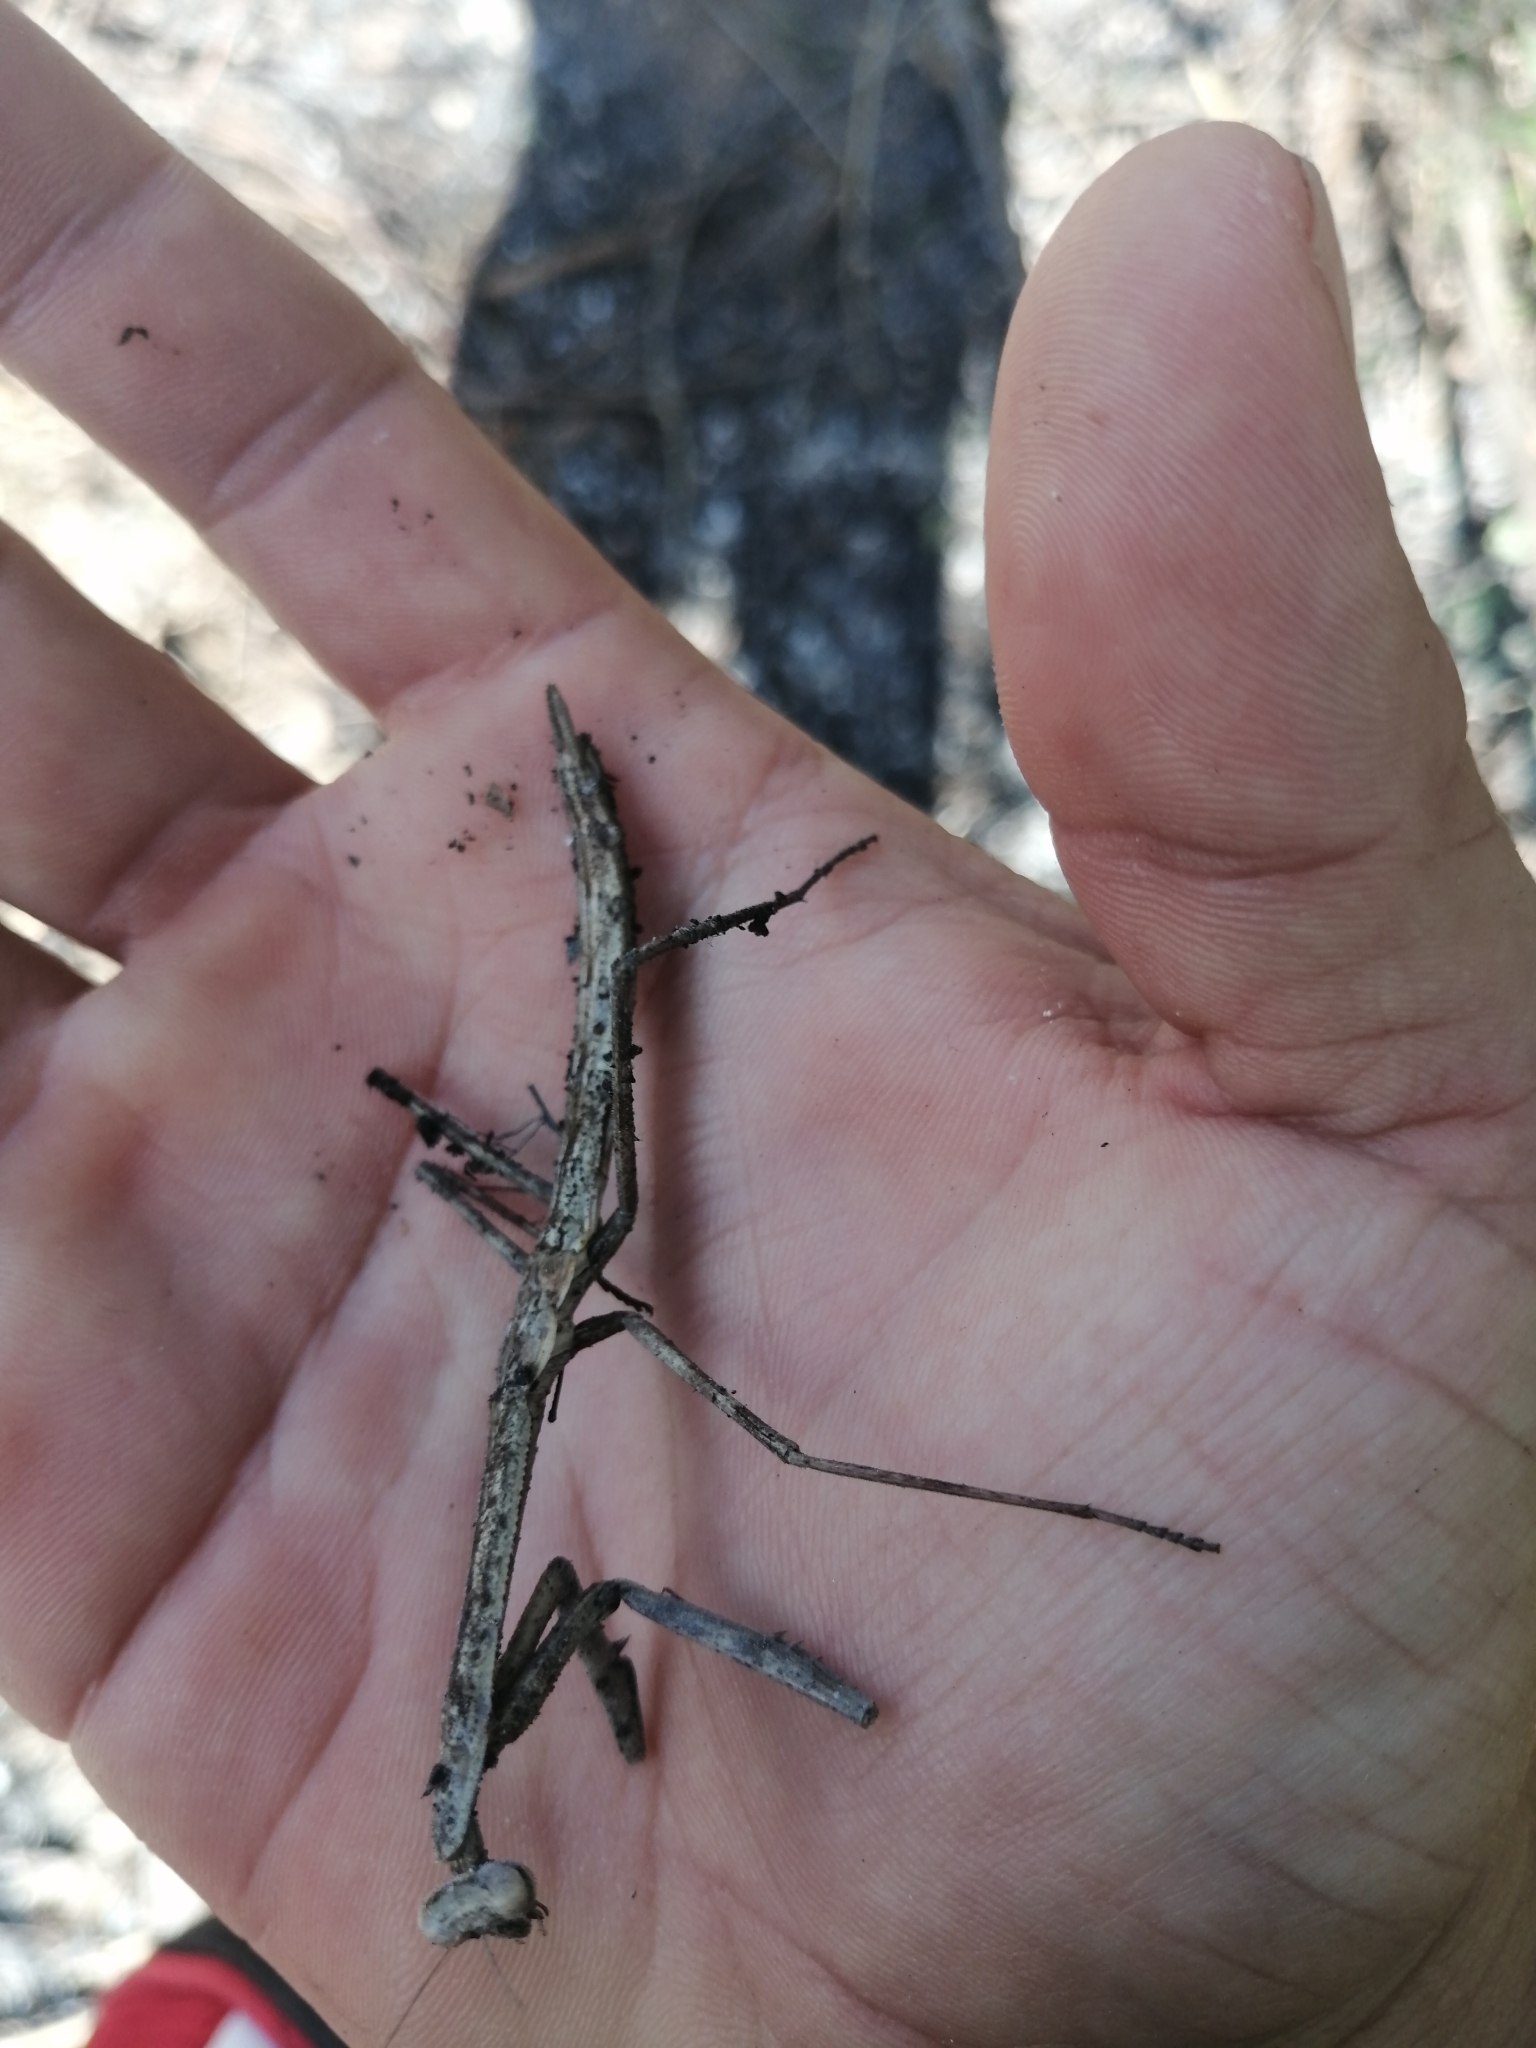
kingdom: Animalia
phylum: Arthropoda
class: Insecta
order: Mantodea
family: Mantidae
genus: Phasmomantis
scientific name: Phasmomantis sumichrasti
